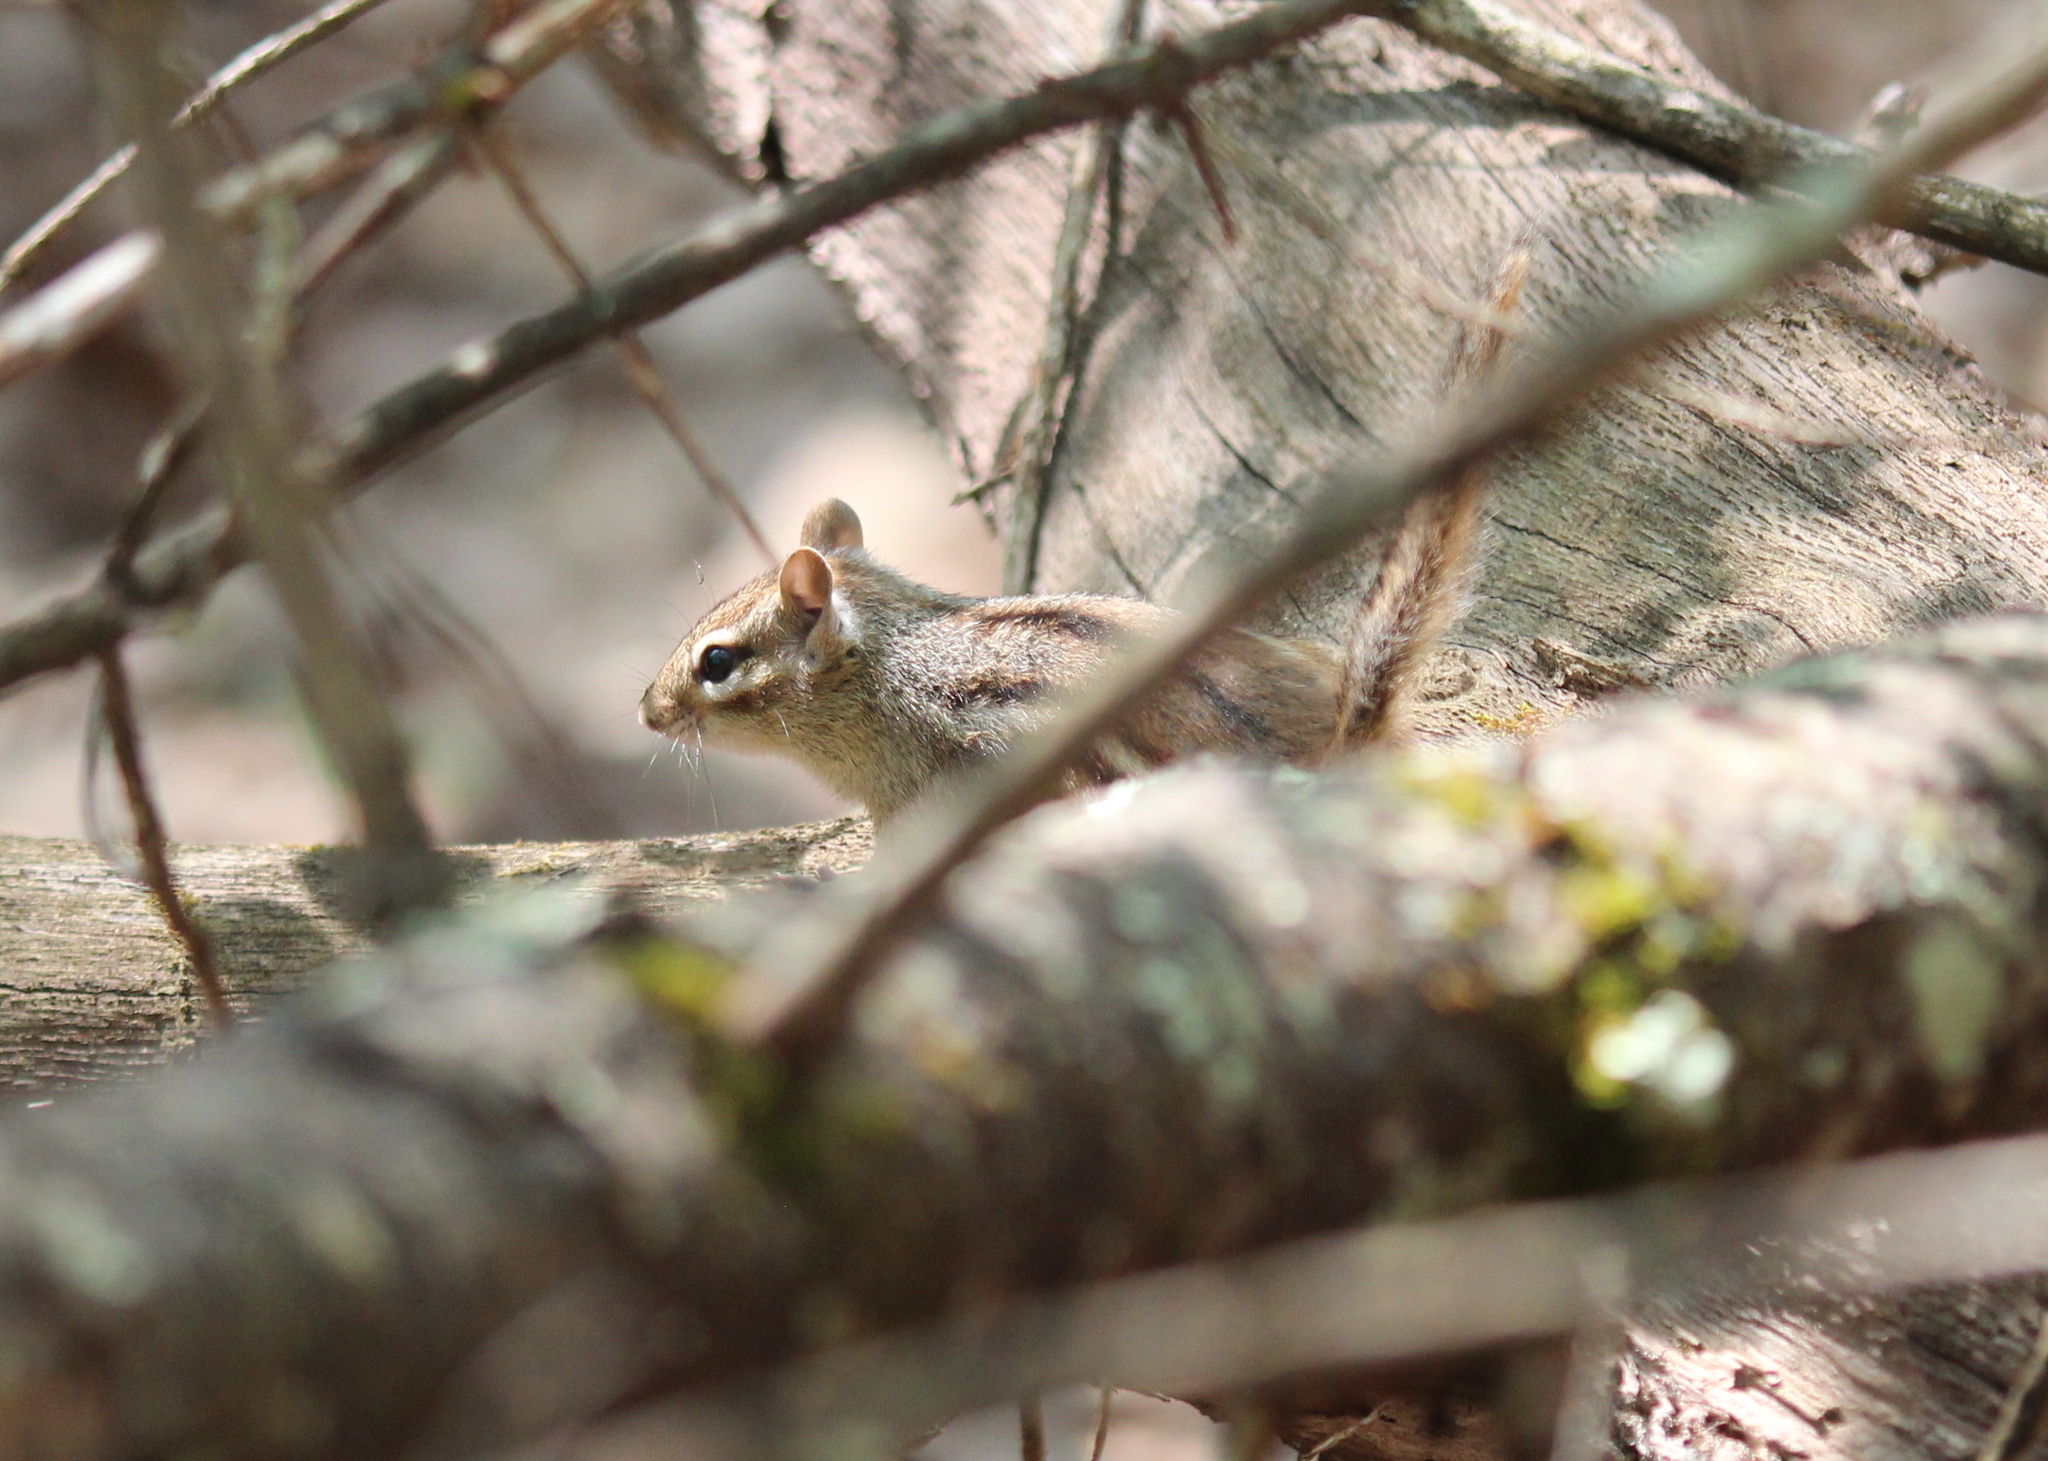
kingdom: Animalia
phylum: Chordata
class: Mammalia
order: Rodentia
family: Sciuridae
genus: Tamias
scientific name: Tamias striatus
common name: Eastern chipmunk
